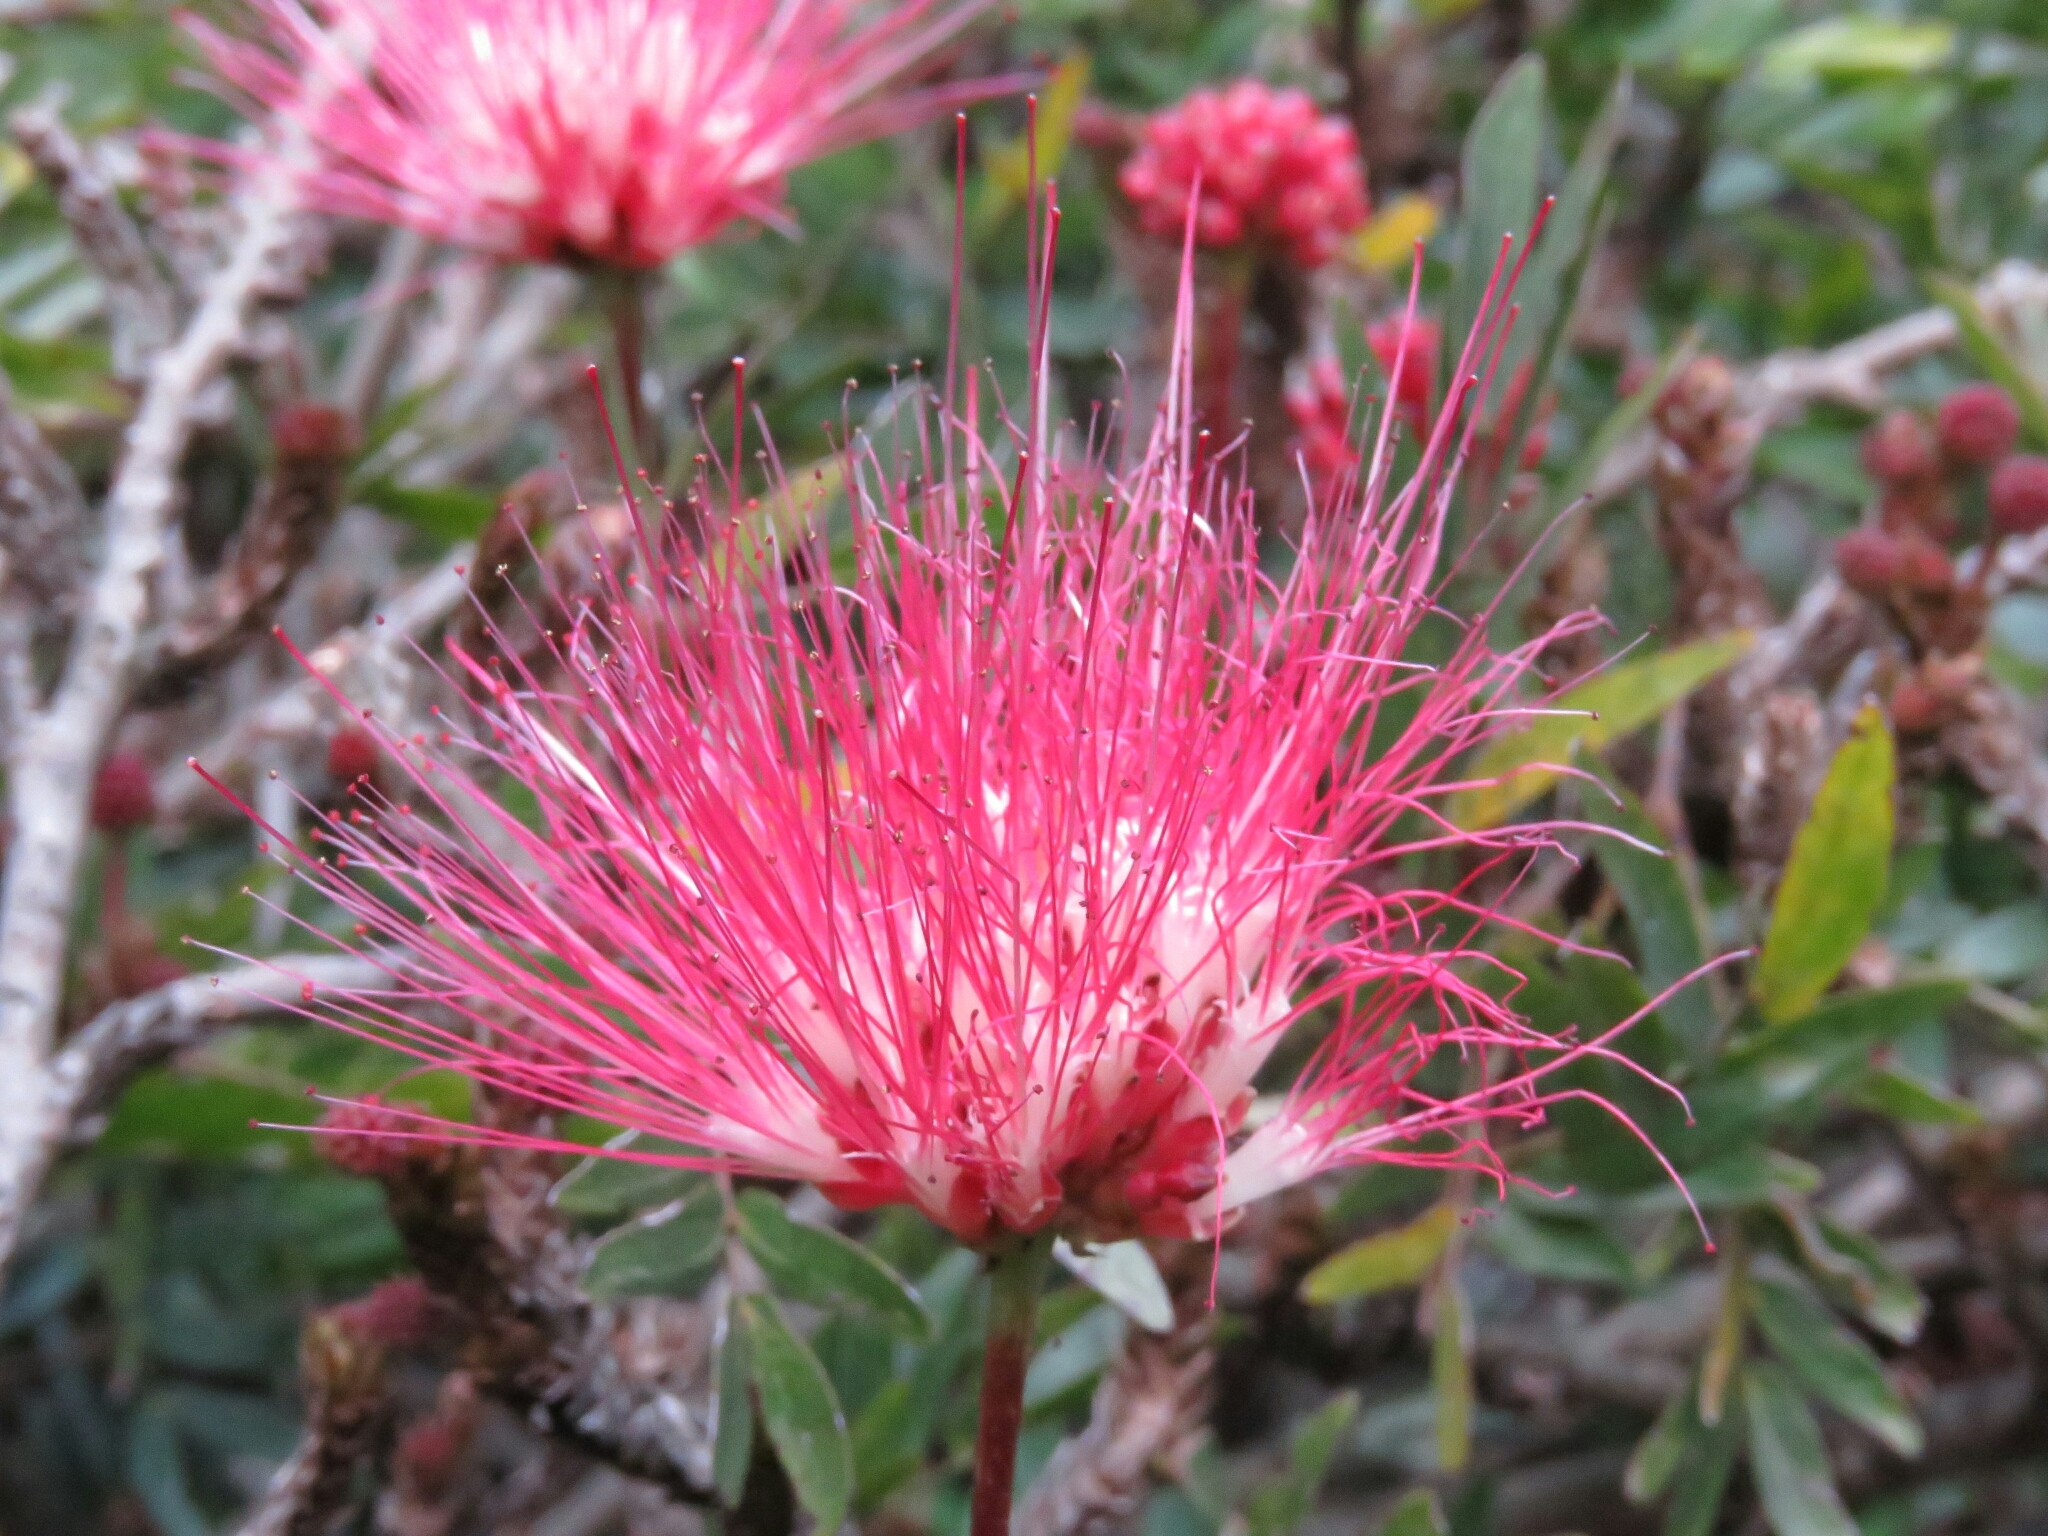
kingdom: Plantae
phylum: Tracheophyta
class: Magnoliopsida
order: Fabales
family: Fabaceae
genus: Calliandra
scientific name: Calliandra haematocephala
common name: Blood red tassel flower
